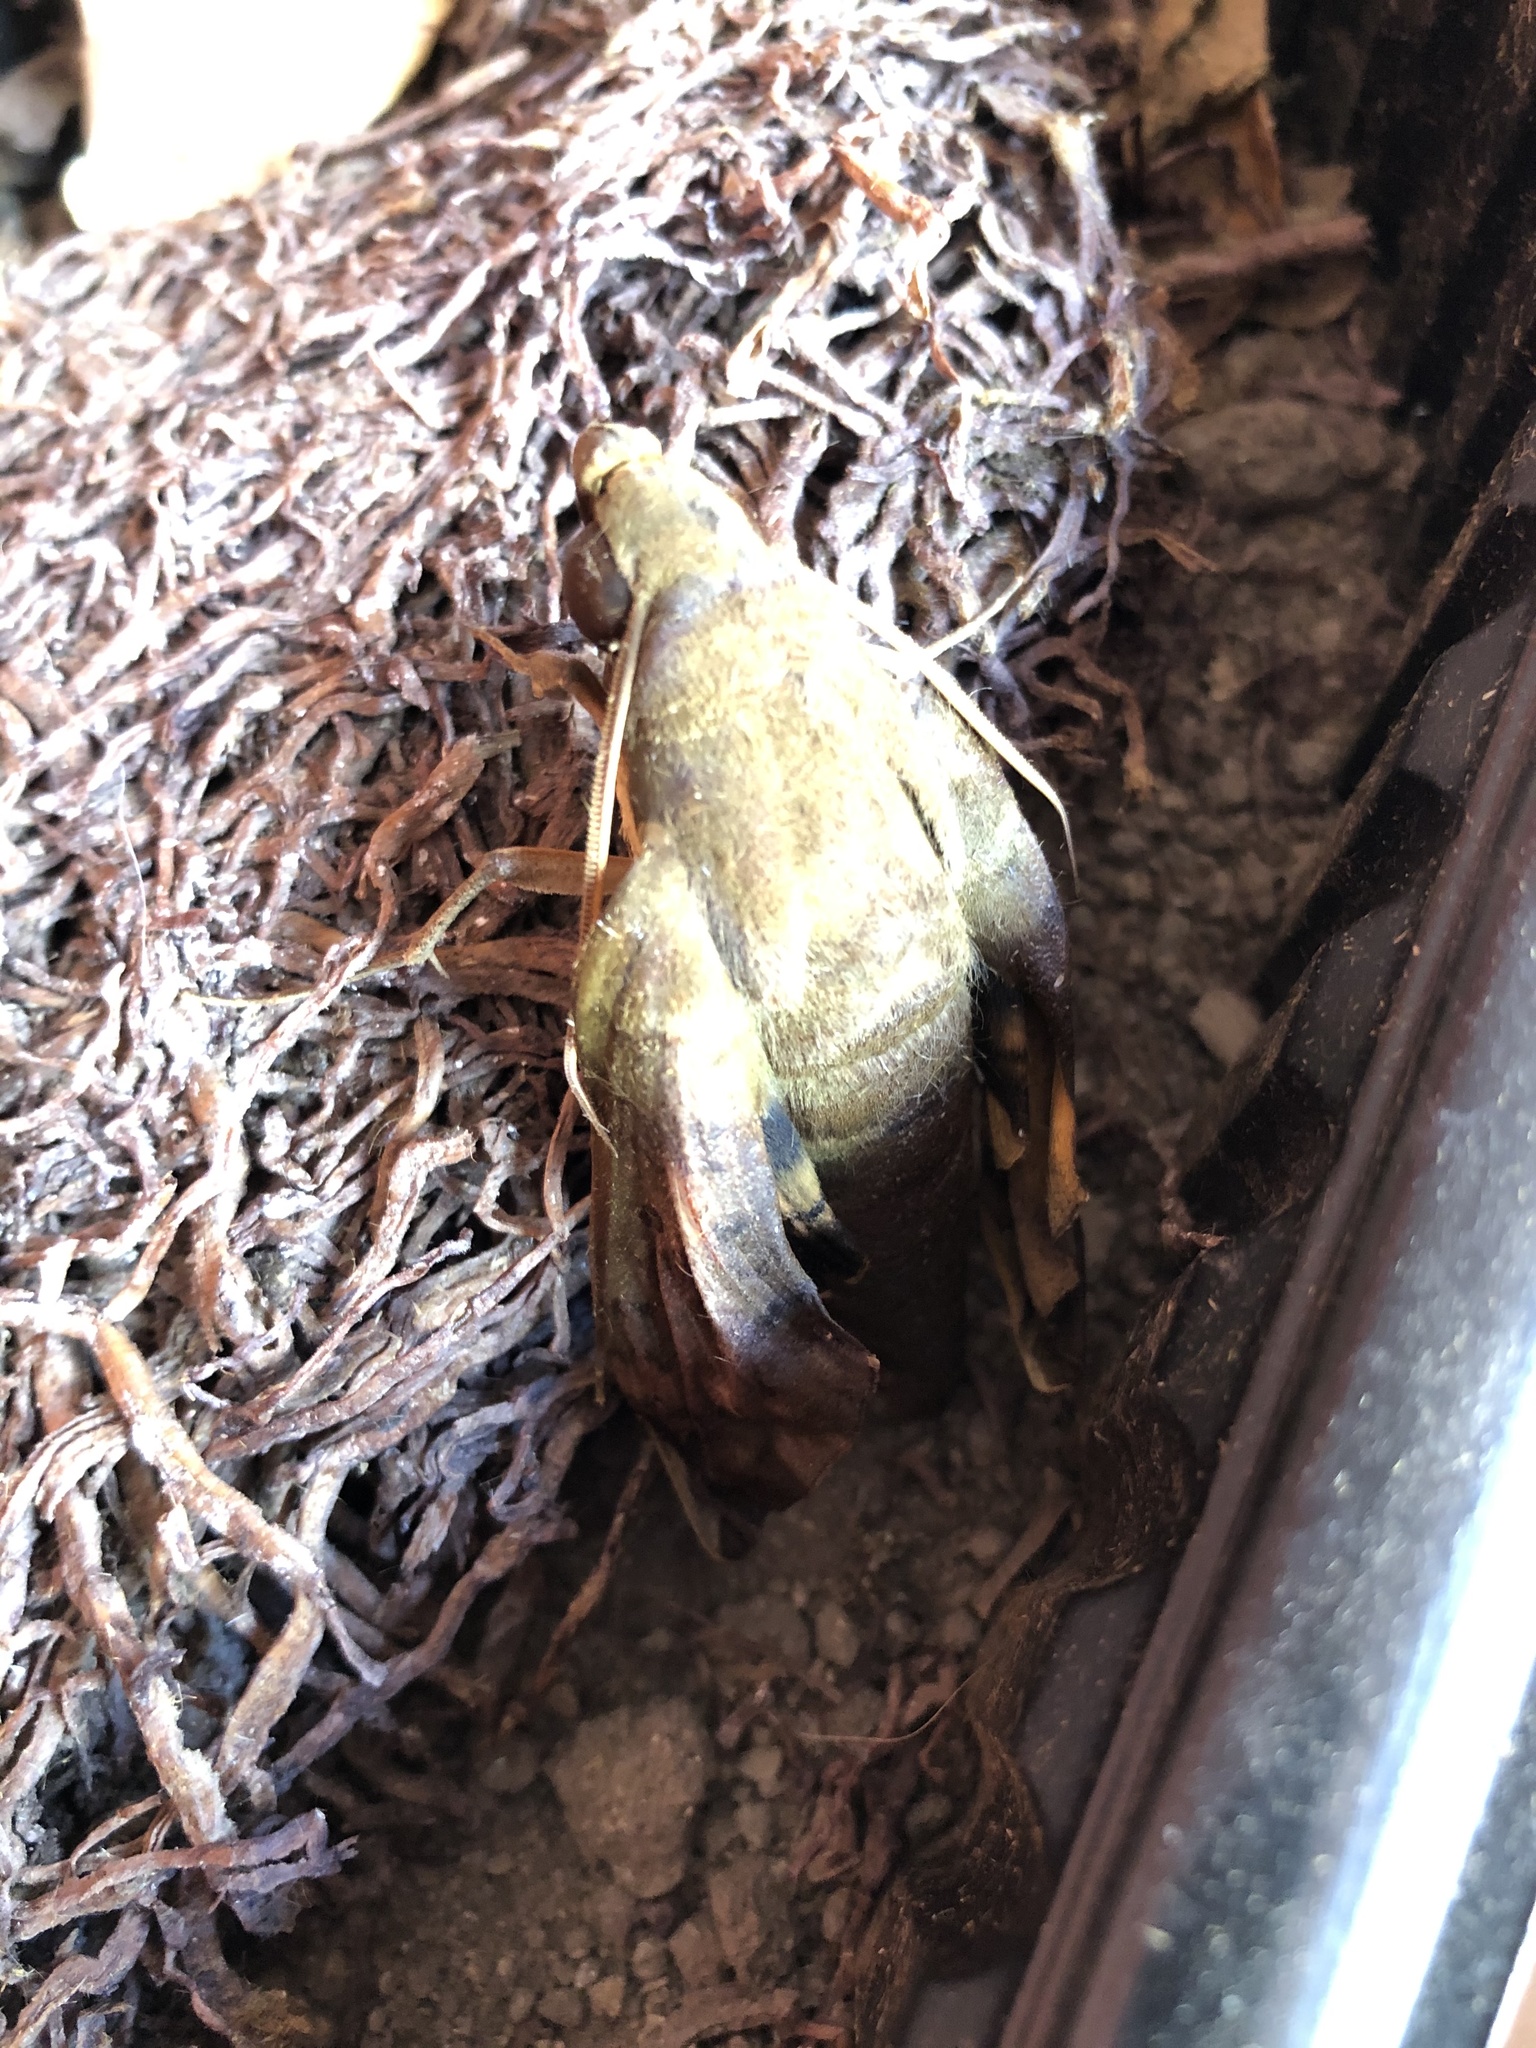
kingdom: Animalia
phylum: Arthropoda
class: Insecta
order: Lepidoptera
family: Sphingidae
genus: Pachylia
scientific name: Pachylia ficus
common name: Fig sphinx
